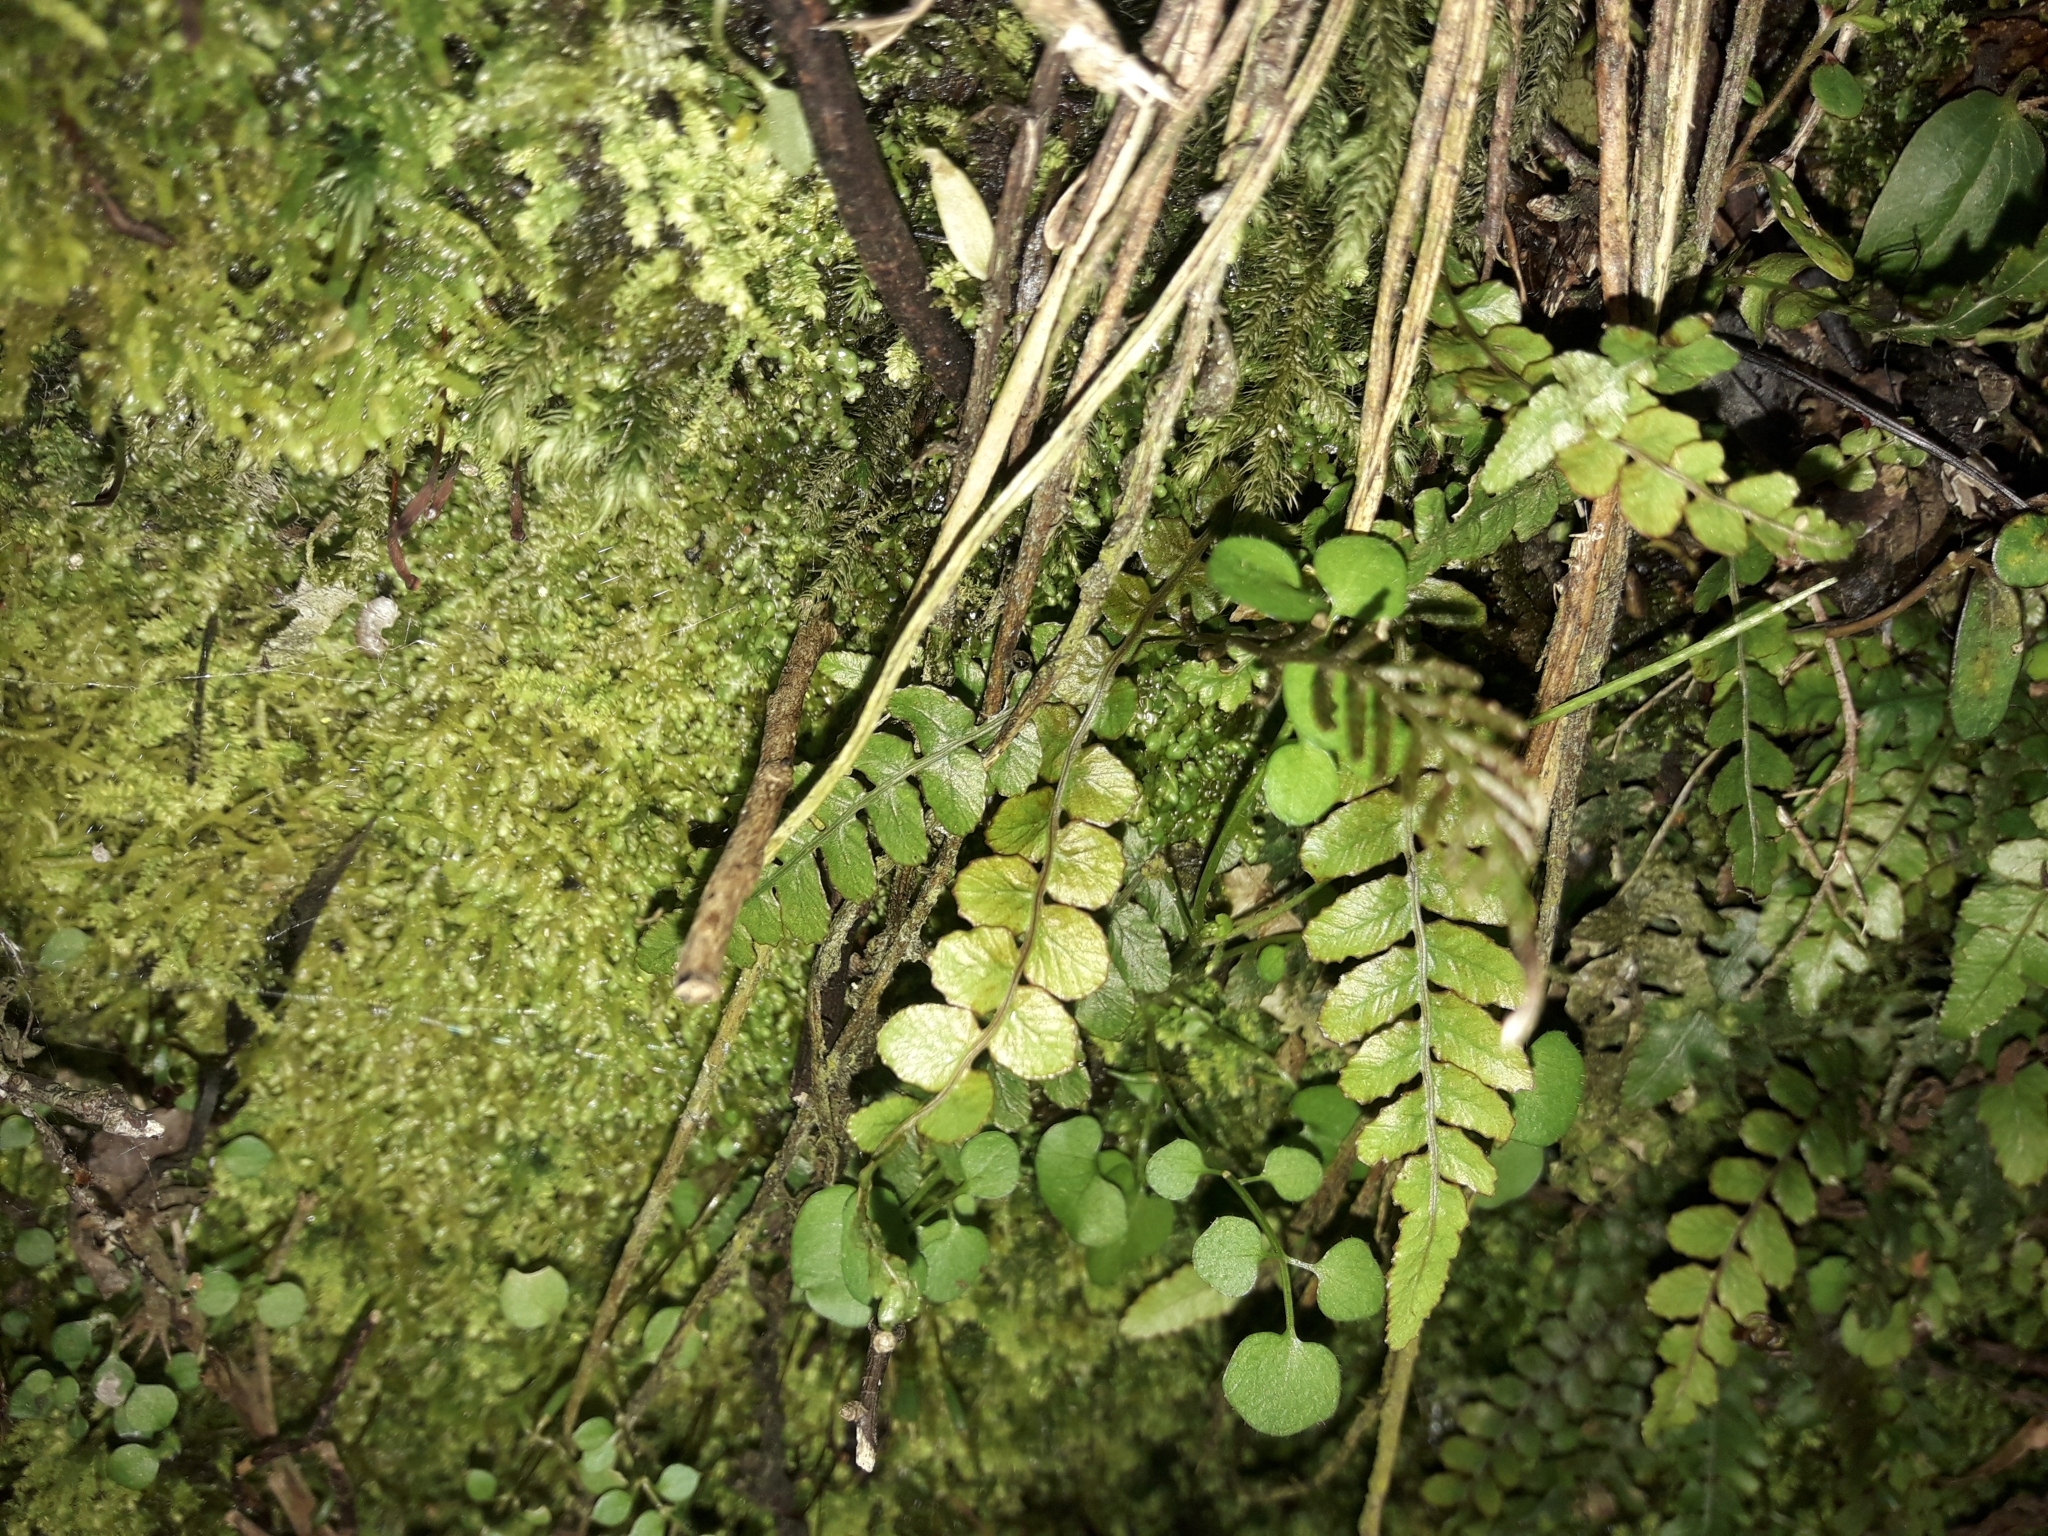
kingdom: Plantae
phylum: Tracheophyta
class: Polypodiopsida
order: Polypodiales
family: Blechnaceae
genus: Austroblechnum
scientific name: Austroblechnum membranaceum
